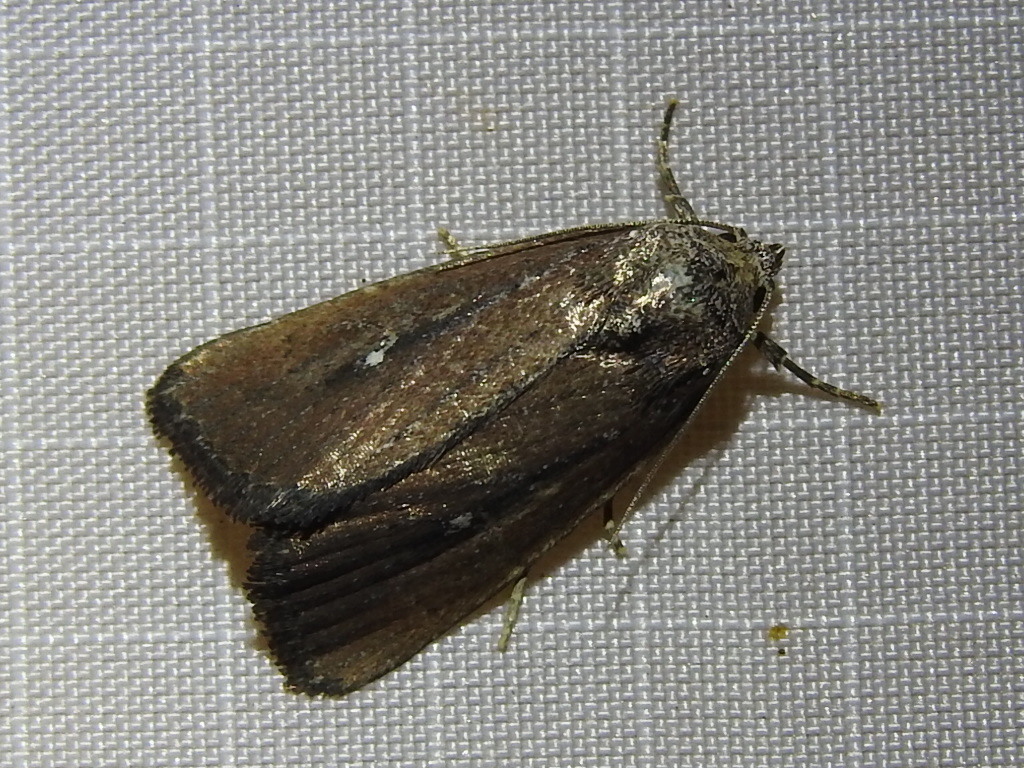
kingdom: Animalia
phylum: Arthropoda
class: Insecta
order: Lepidoptera
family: Noctuidae
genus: Condica
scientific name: Condica videns
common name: White-dotted groundling
